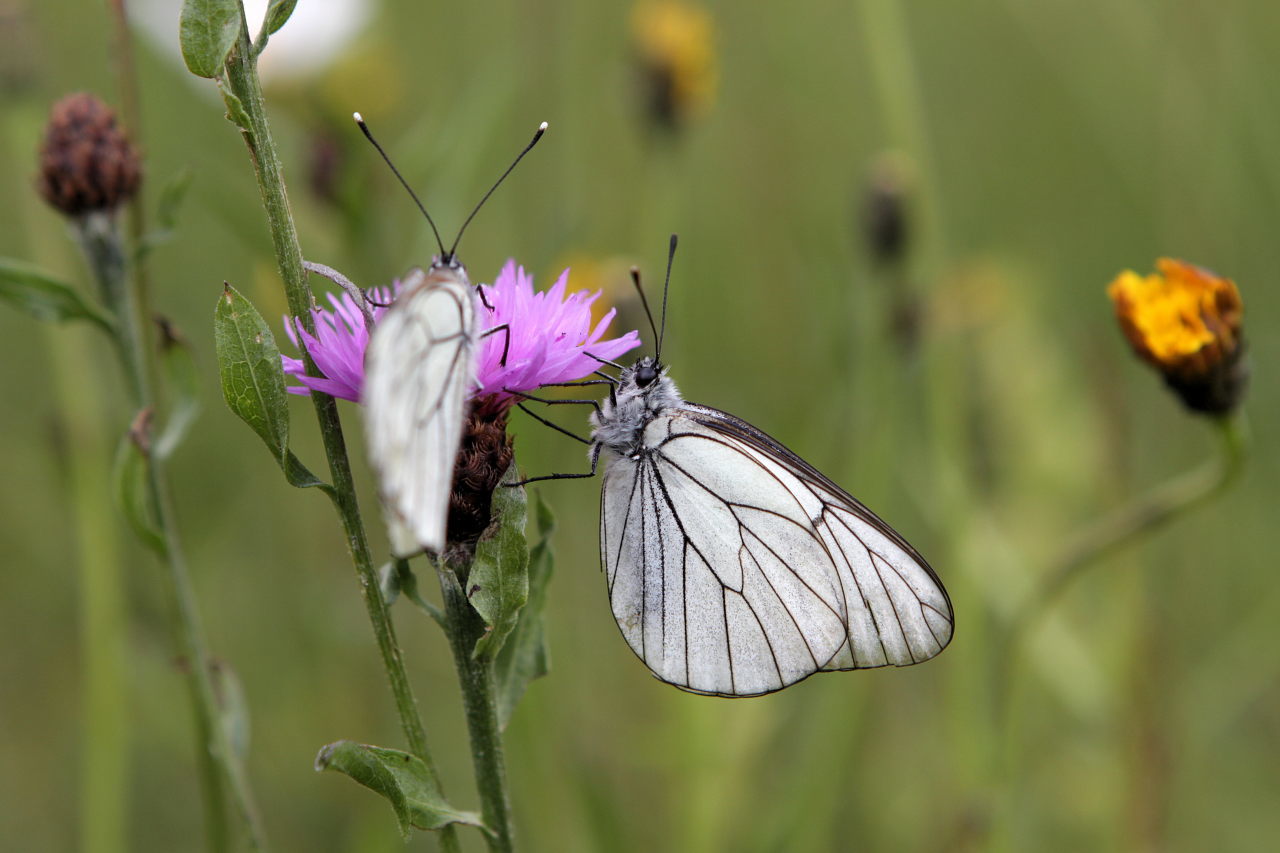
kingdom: Animalia
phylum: Arthropoda
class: Insecta
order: Lepidoptera
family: Pieridae
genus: Aporia
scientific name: Aporia crataegi
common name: Black-veined white
